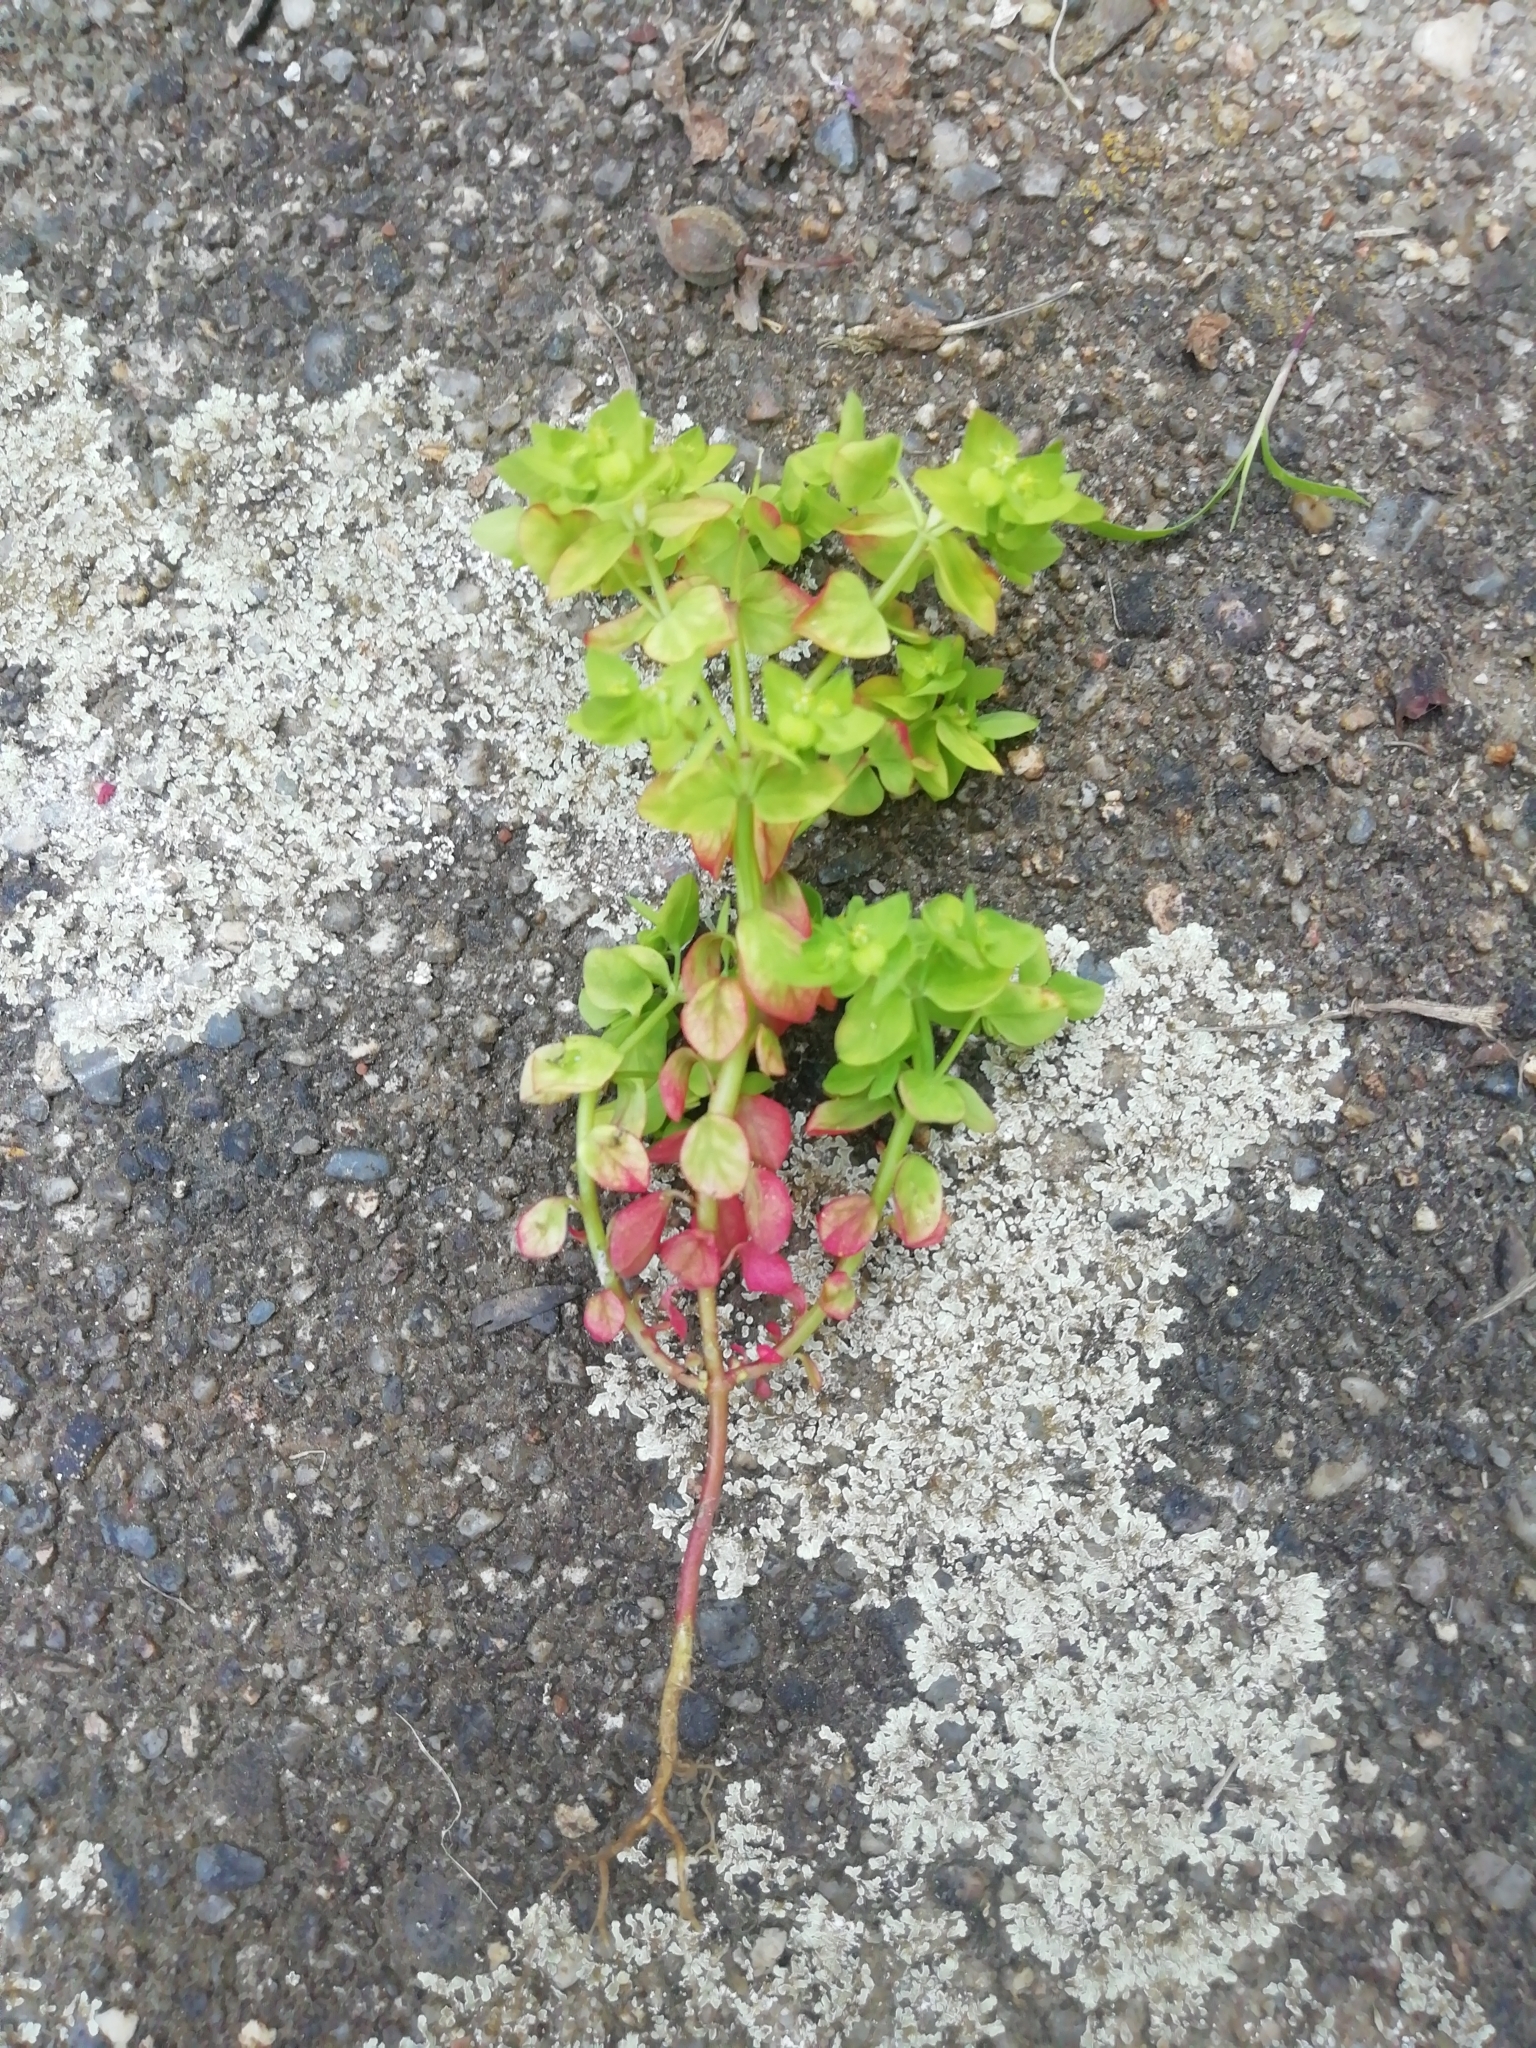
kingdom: Plantae
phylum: Tracheophyta
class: Magnoliopsida
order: Malpighiales
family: Euphorbiaceae
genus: Euphorbia
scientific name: Euphorbia peplus
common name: Petty spurge
